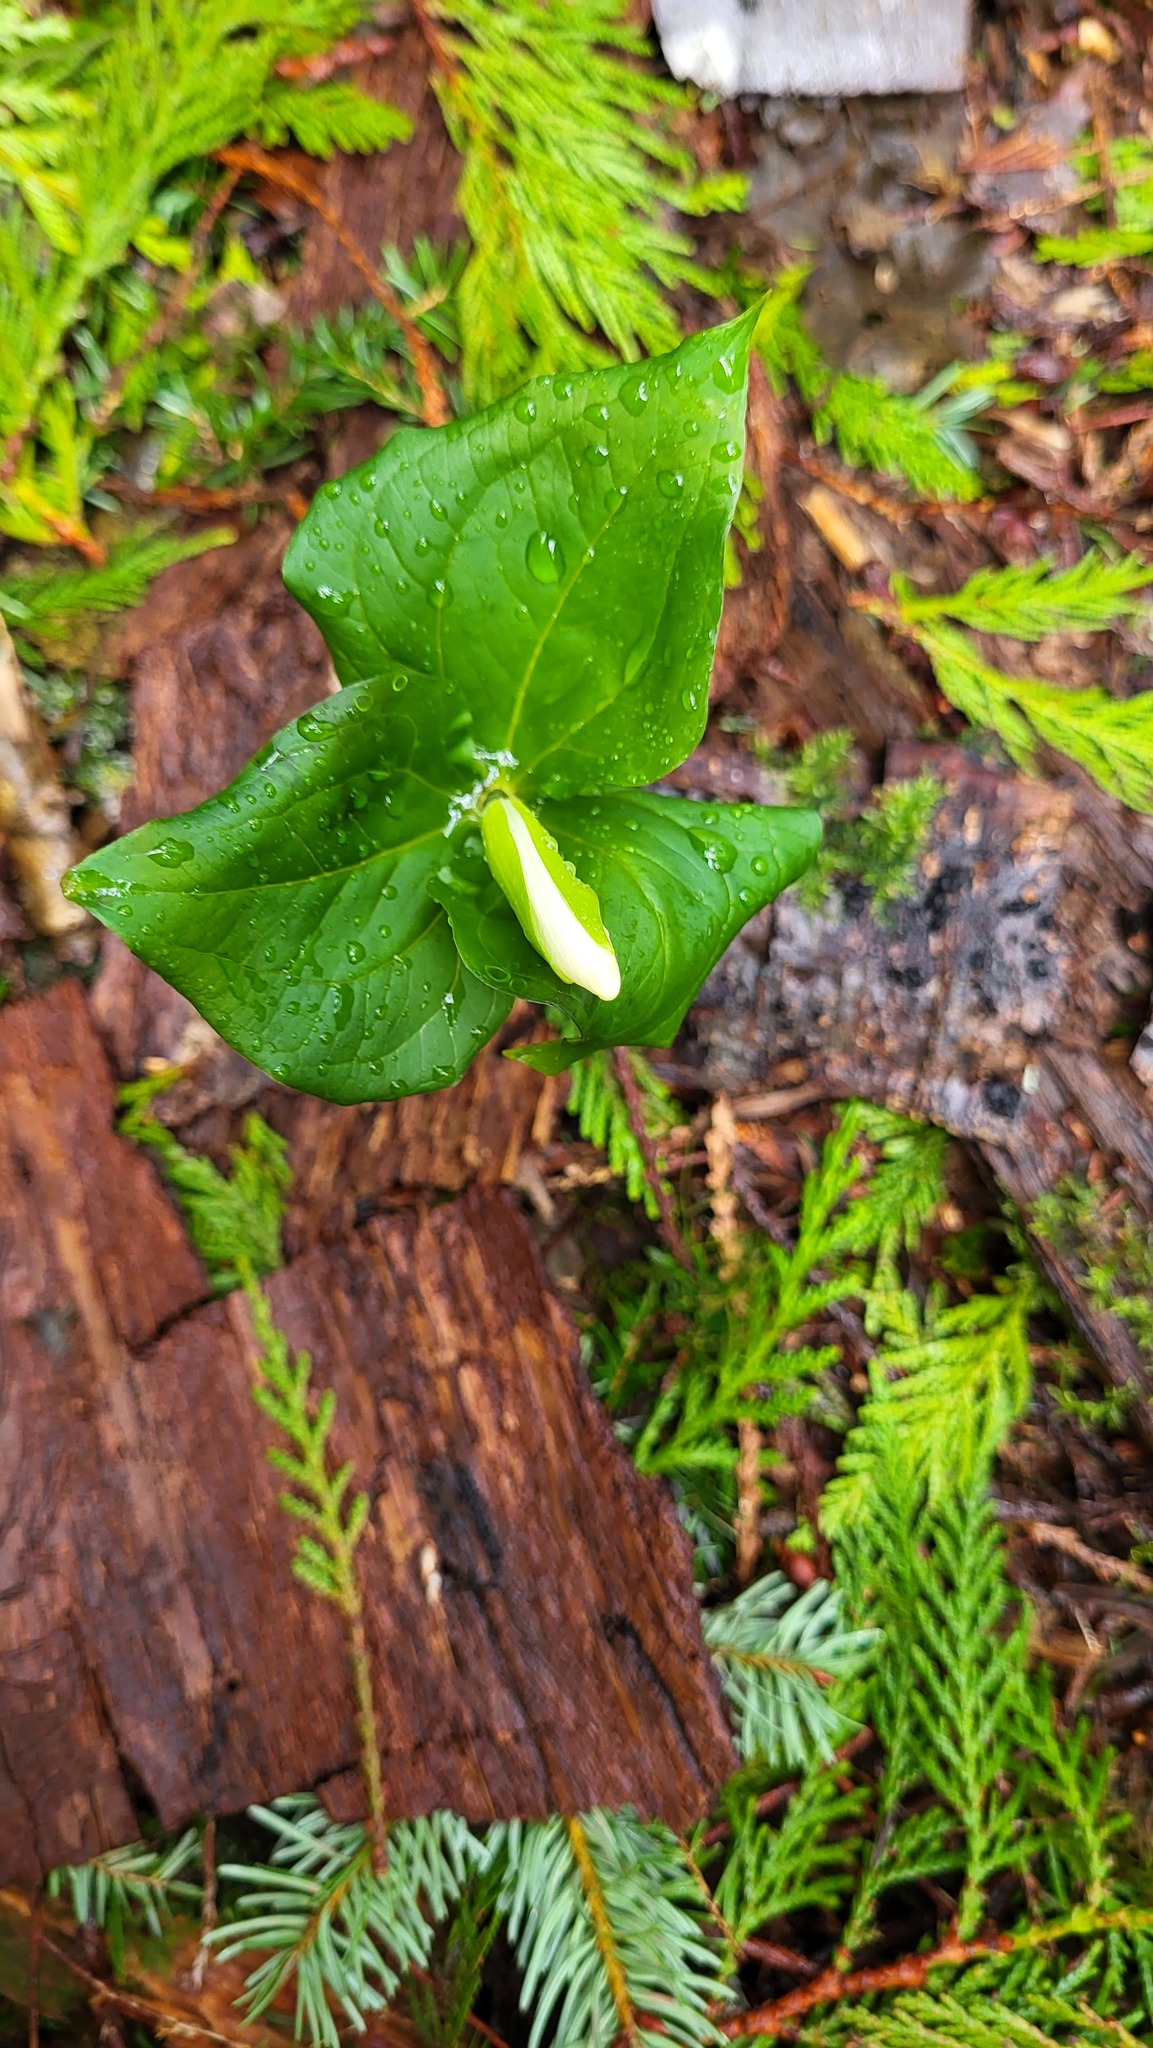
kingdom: Plantae
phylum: Tracheophyta
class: Liliopsida
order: Liliales
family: Melanthiaceae
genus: Trillium
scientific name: Trillium ovatum
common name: Pacific trillium
